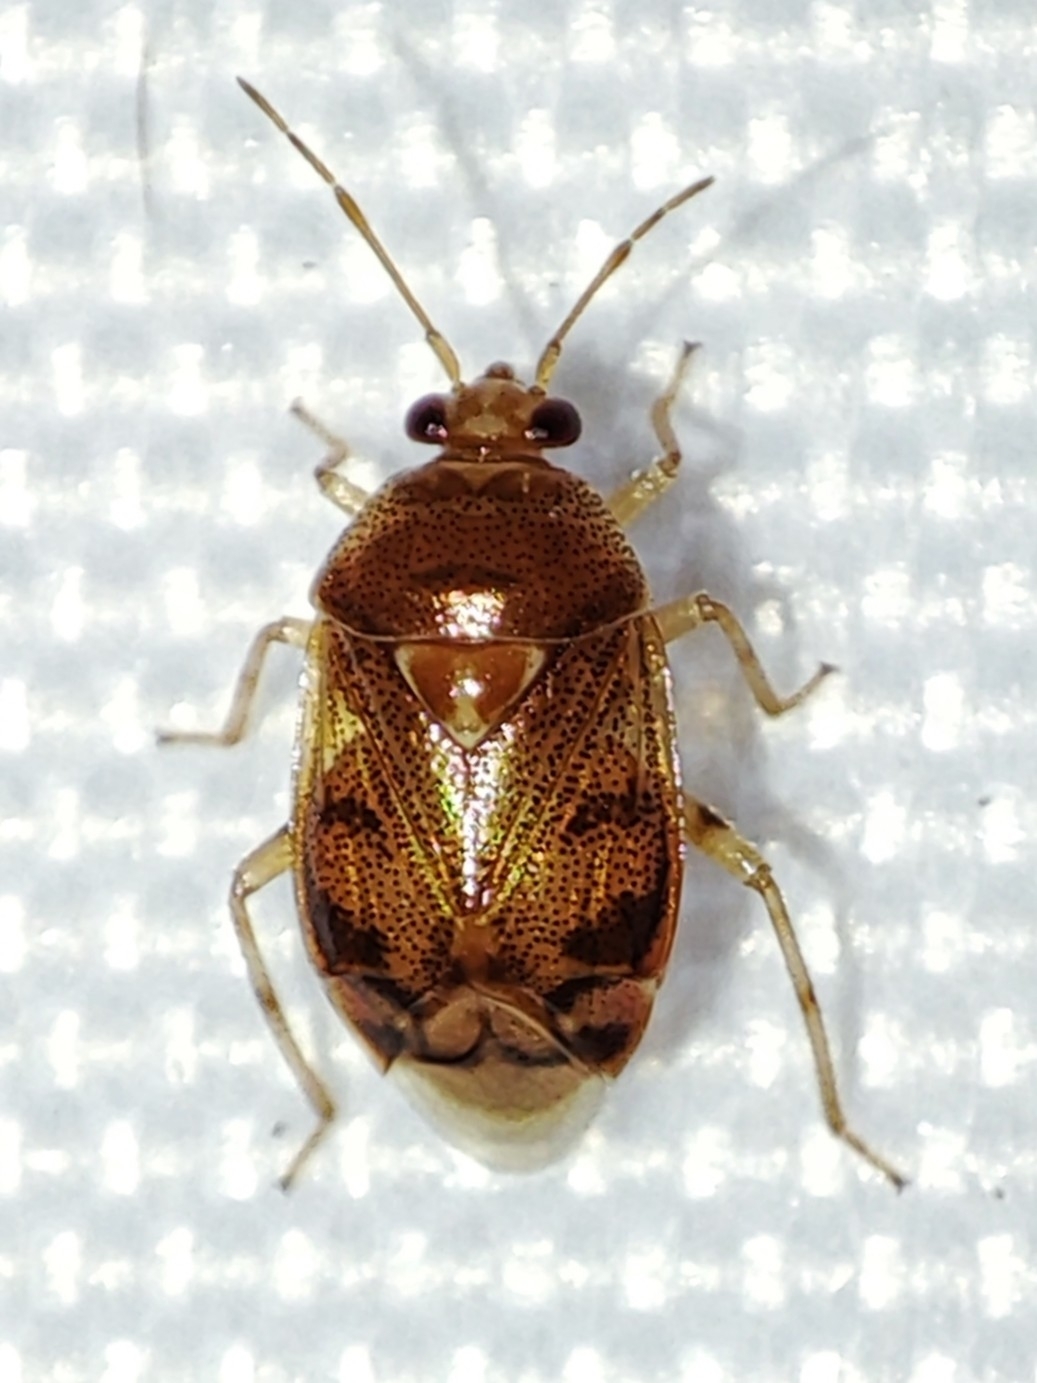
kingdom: Animalia
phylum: Arthropoda
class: Insecta
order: Hemiptera
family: Miridae
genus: Deraeocoris
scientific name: Deraeocoris lutescens
